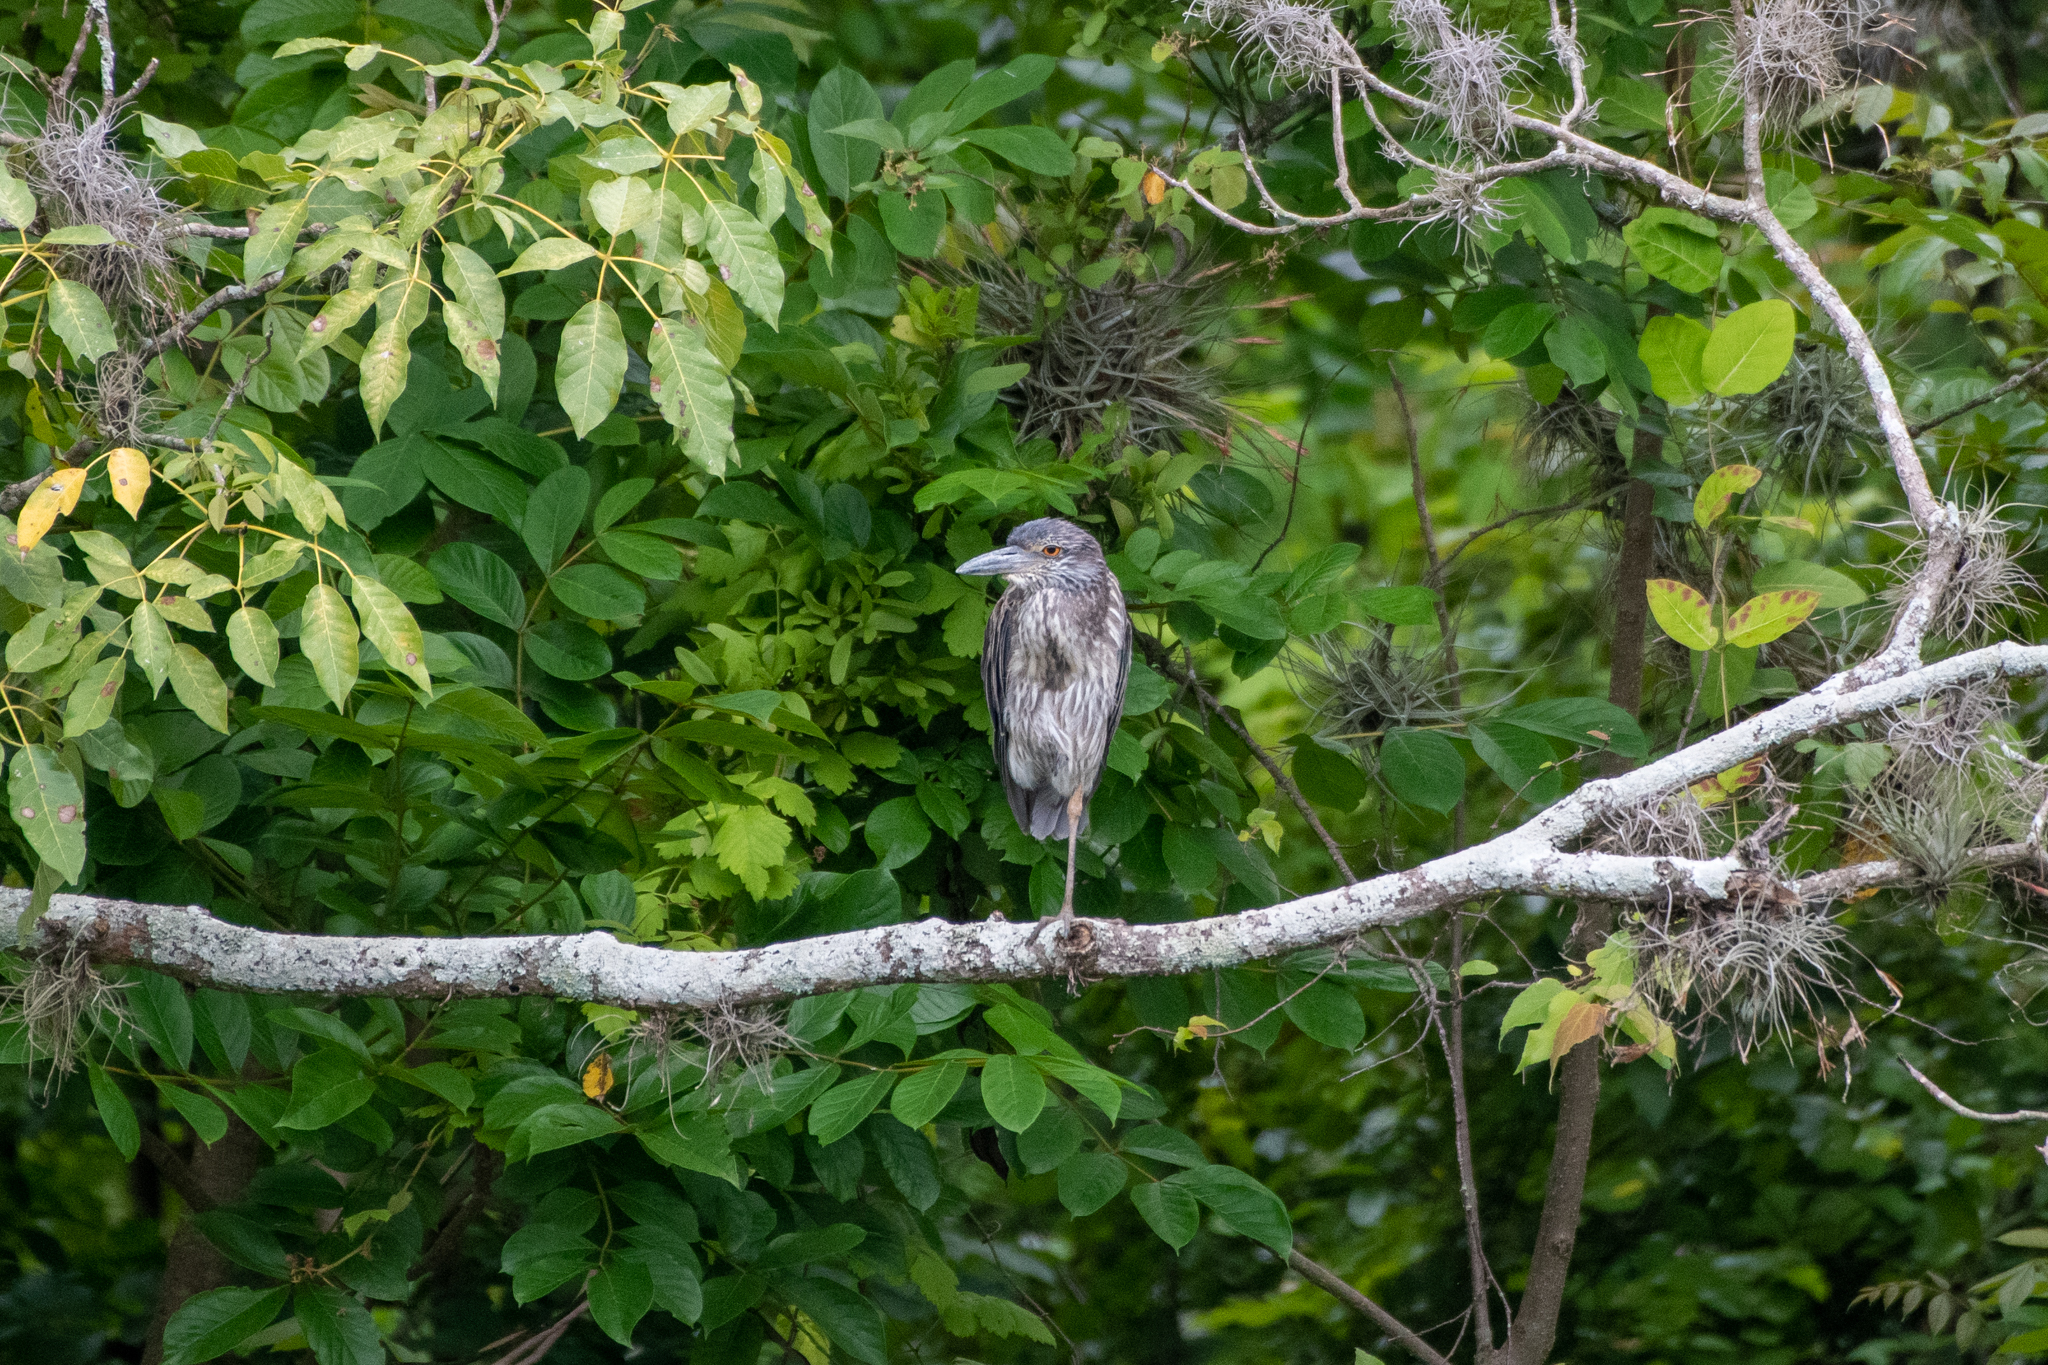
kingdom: Animalia
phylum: Chordata
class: Aves
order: Pelecaniformes
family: Ardeidae
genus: Nyctanassa
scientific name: Nyctanassa violacea
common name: Yellow-crowned night heron
